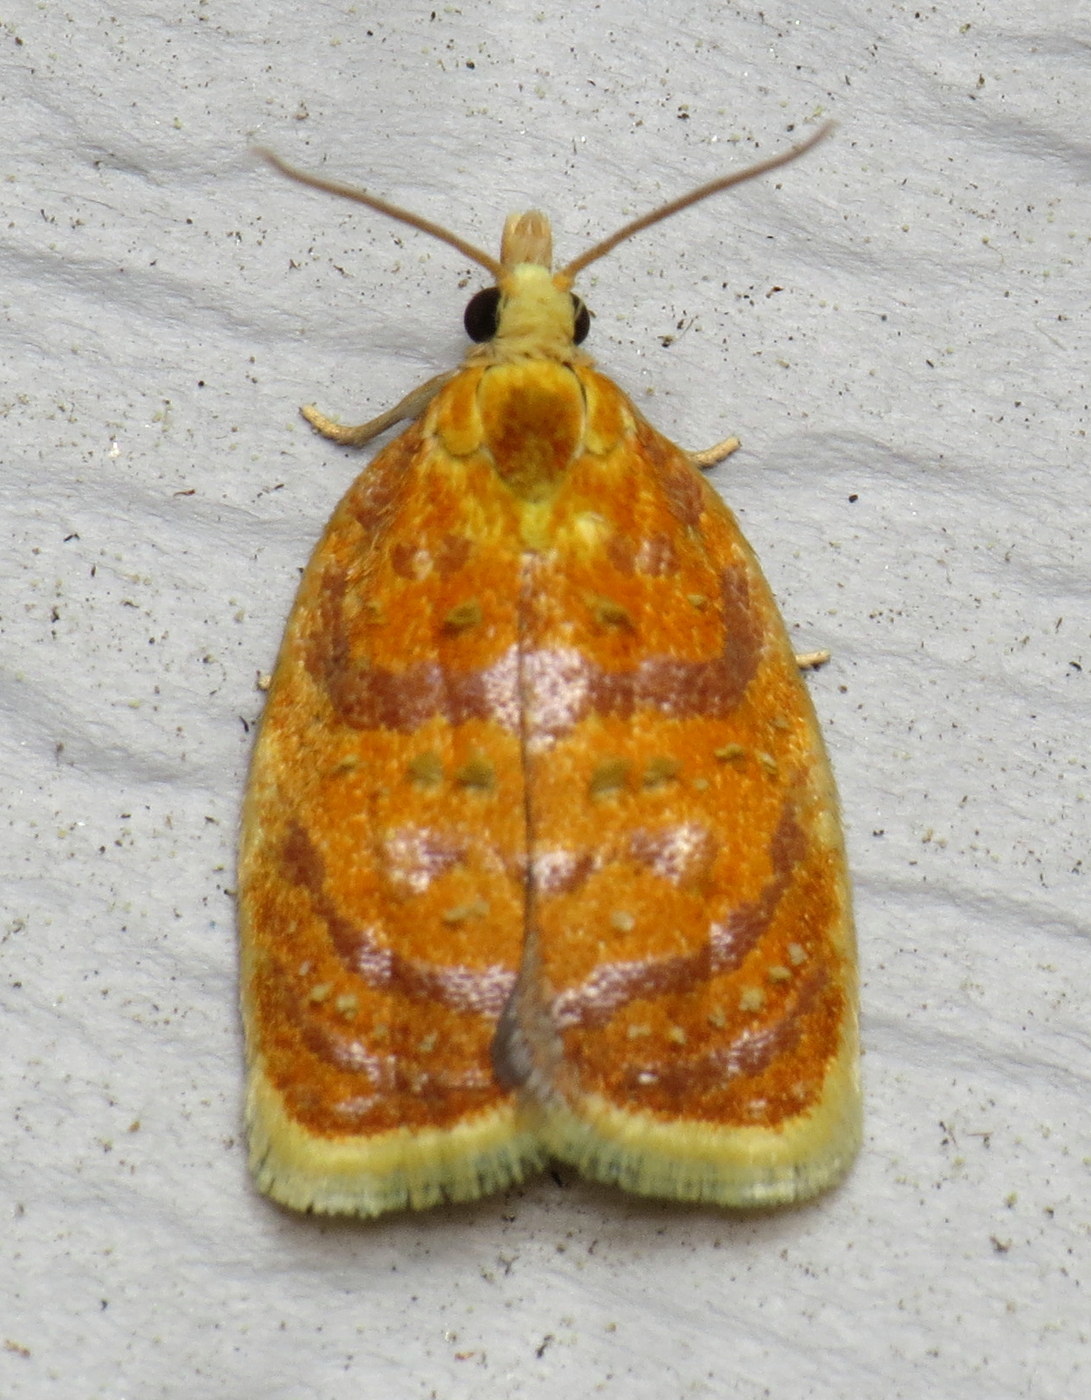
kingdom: Animalia
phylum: Arthropoda
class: Insecta
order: Lepidoptera
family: Tortricidae
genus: Acleris
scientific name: Acleris curvalana
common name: Blueberry leaftier moth
